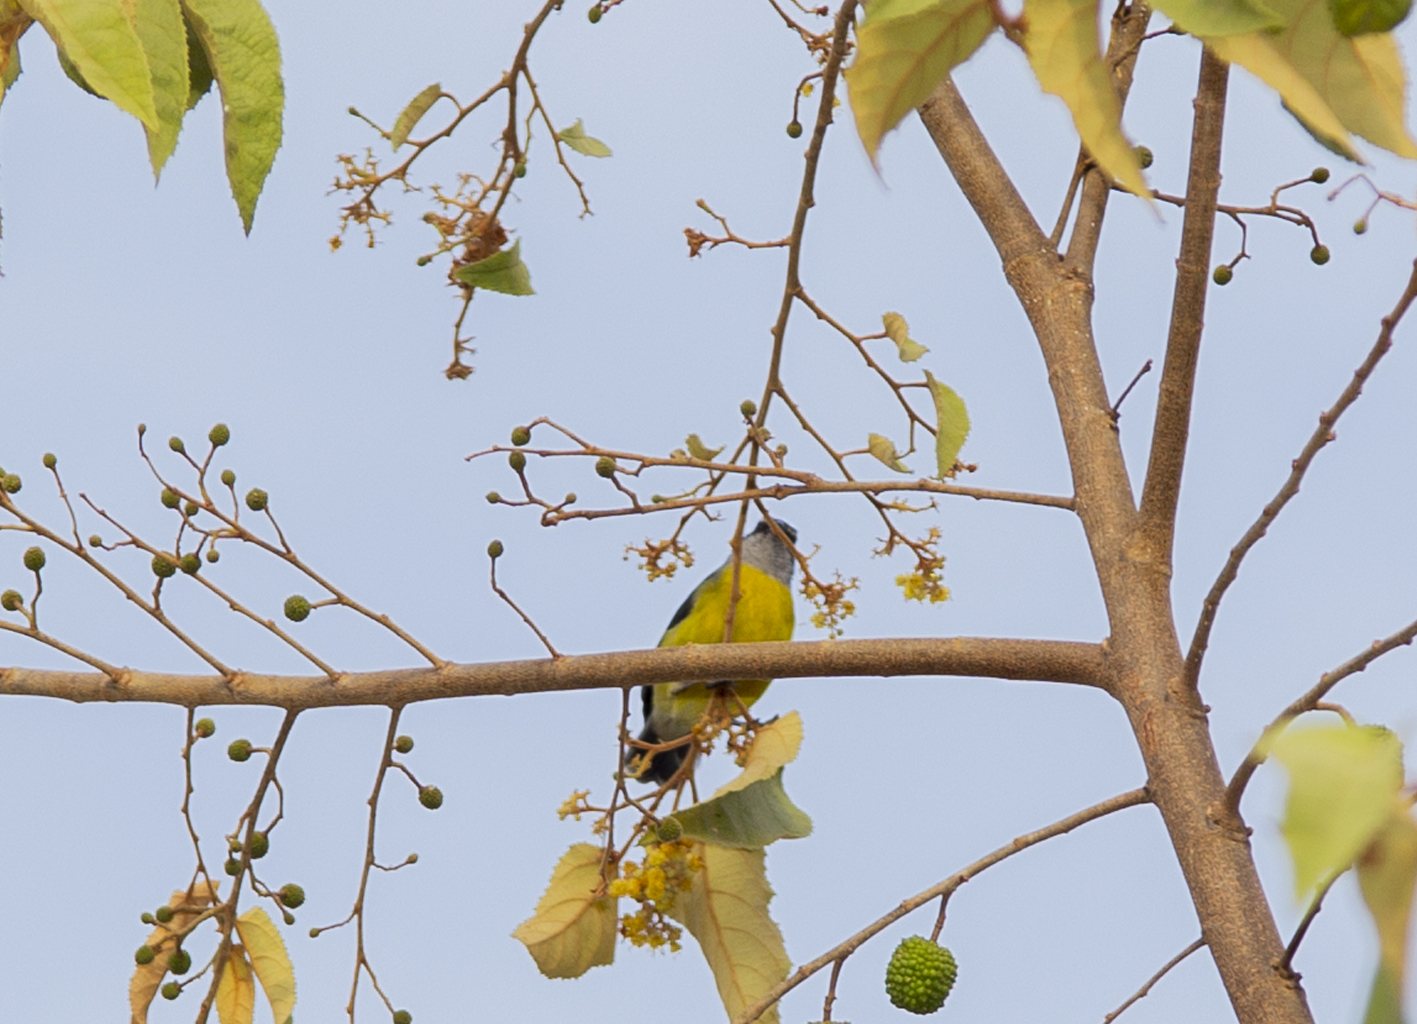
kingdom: Animalia
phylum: Chordata
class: Aves
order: Passeriformes
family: Thraupidae
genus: Coereba
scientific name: Coereba flaveola
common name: Bananaquit
